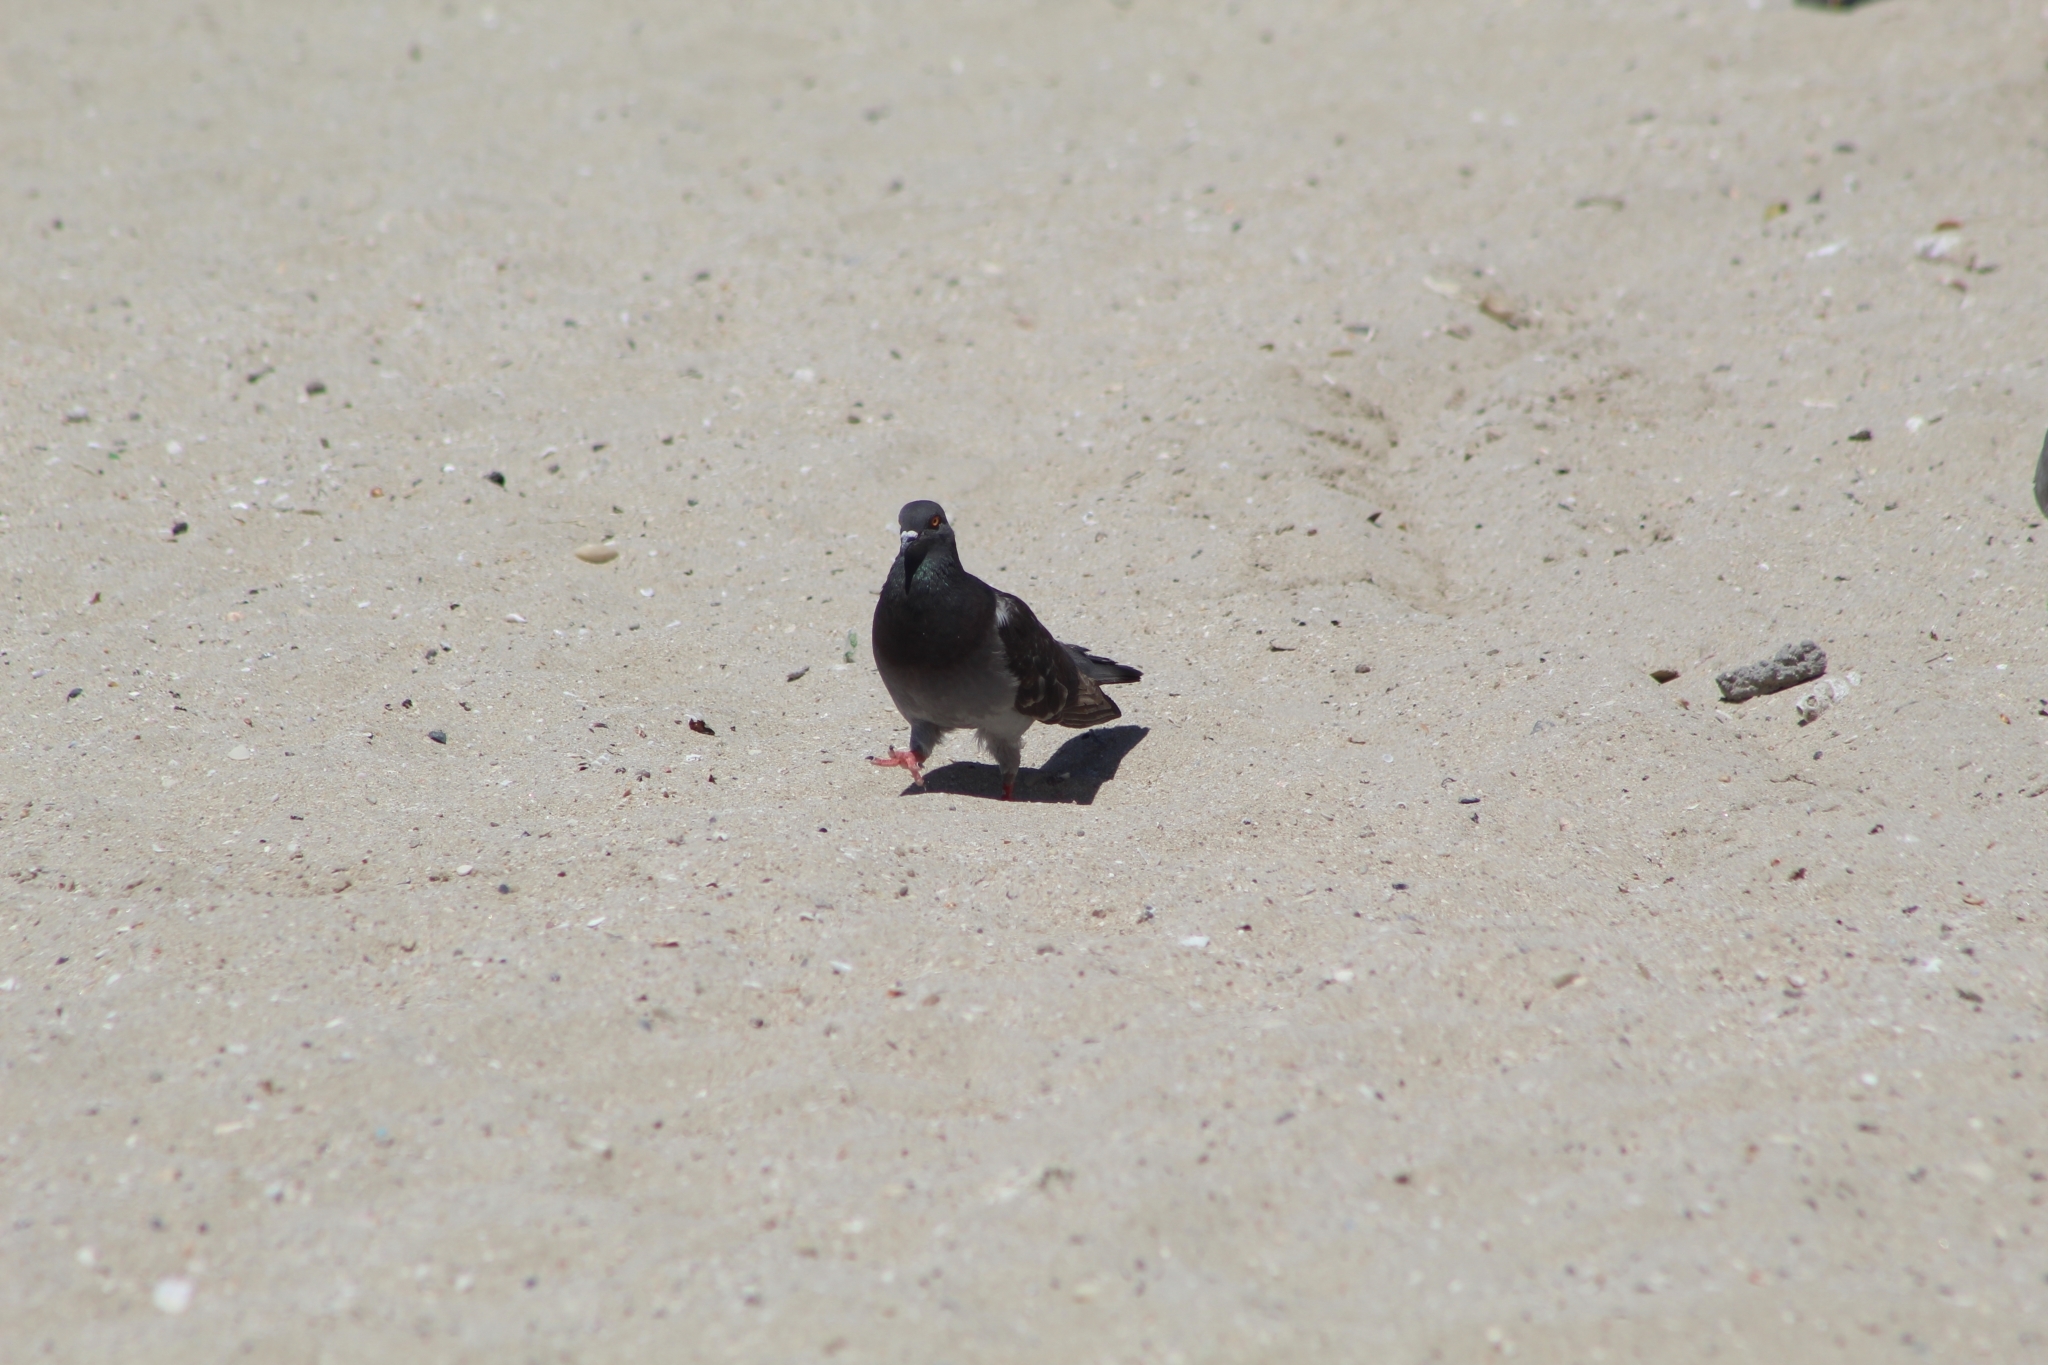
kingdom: Animalia
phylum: Chordata
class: Aves
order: Columbiformes
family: Columbidae
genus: Columba
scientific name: Columba livia
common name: Rock pigeon
